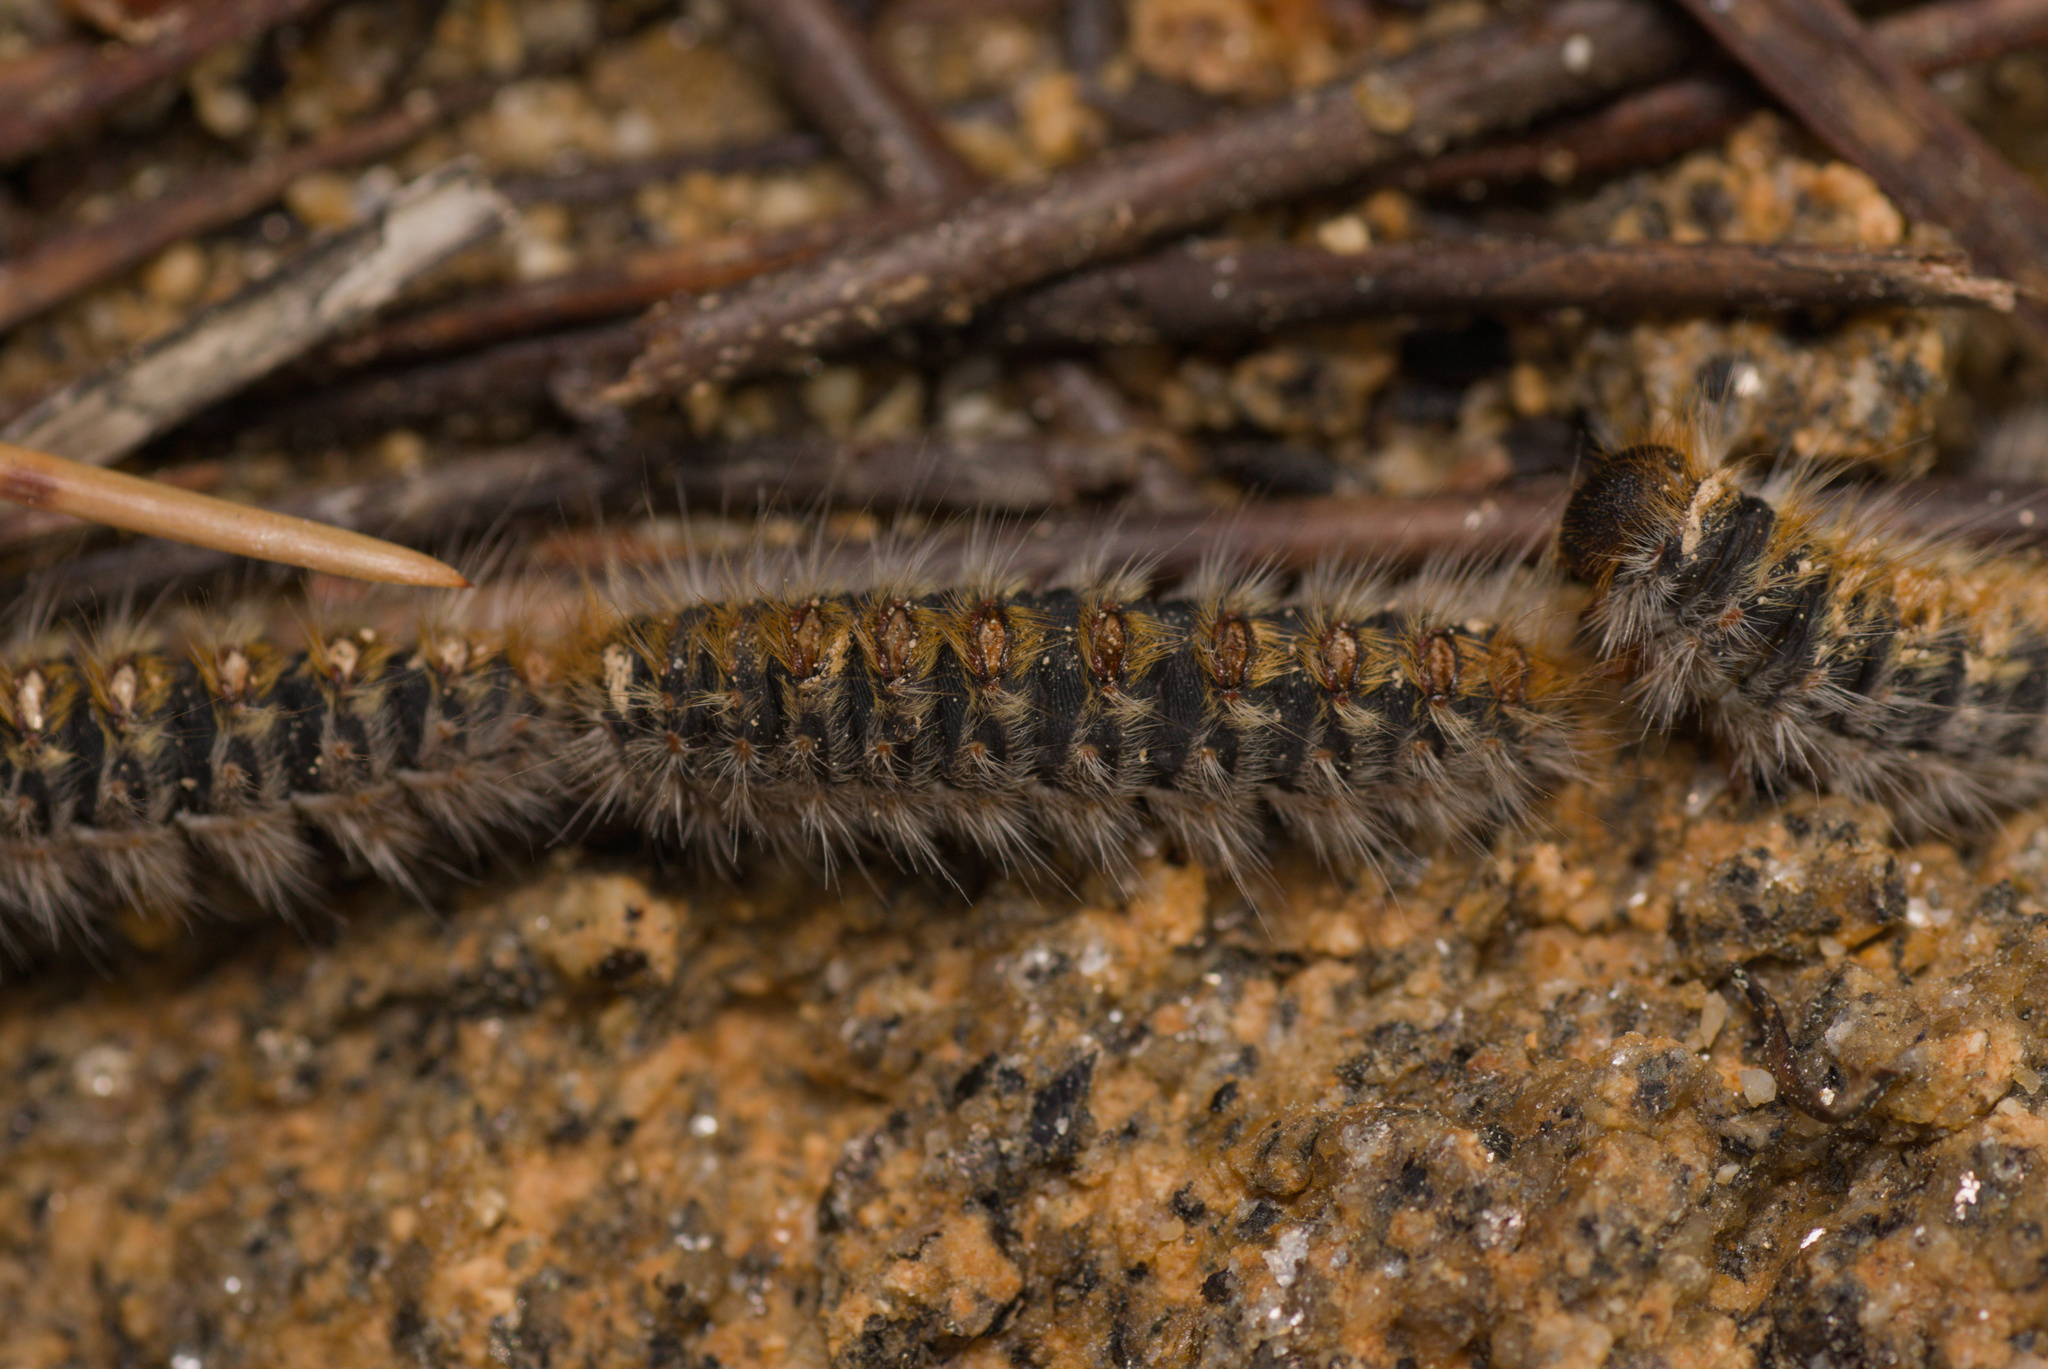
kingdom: Animalia
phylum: Arthropoda
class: Insecta
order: Lepidoptera
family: Notodontidae
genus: Thaumetopoea
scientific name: Thaumetopoea pityocampa
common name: Pine processionary
